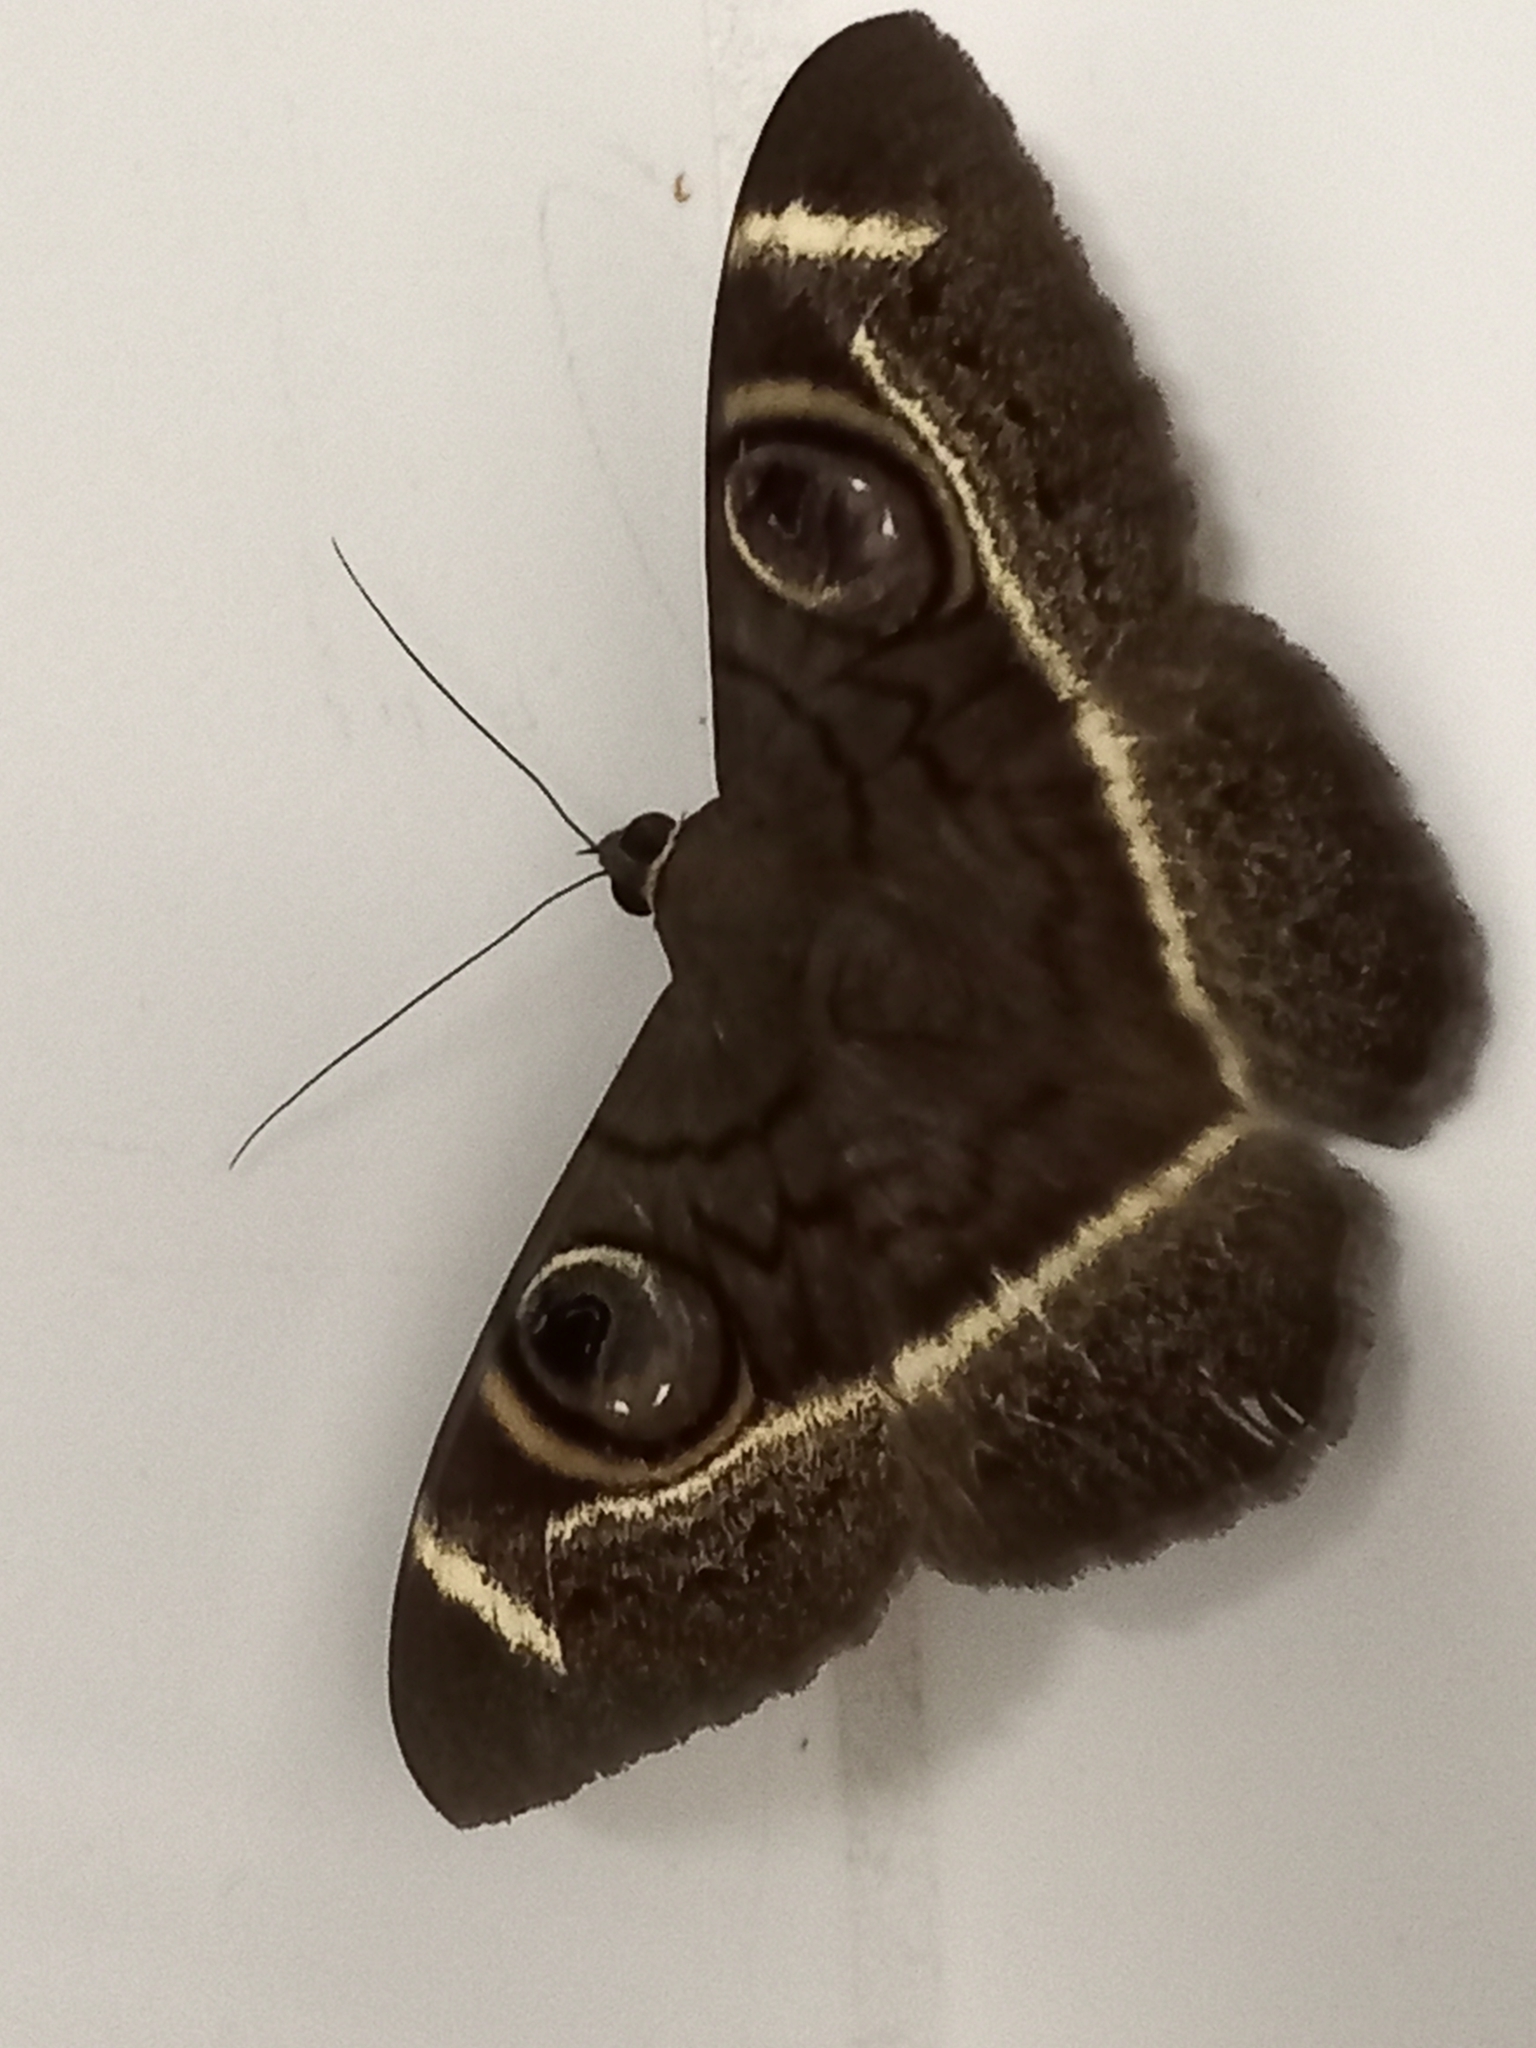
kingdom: Animalia
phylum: Arthropoda
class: Insecta
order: Lepidoptera
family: Erebidae
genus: Cyligramma
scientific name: Cyligramma latona
